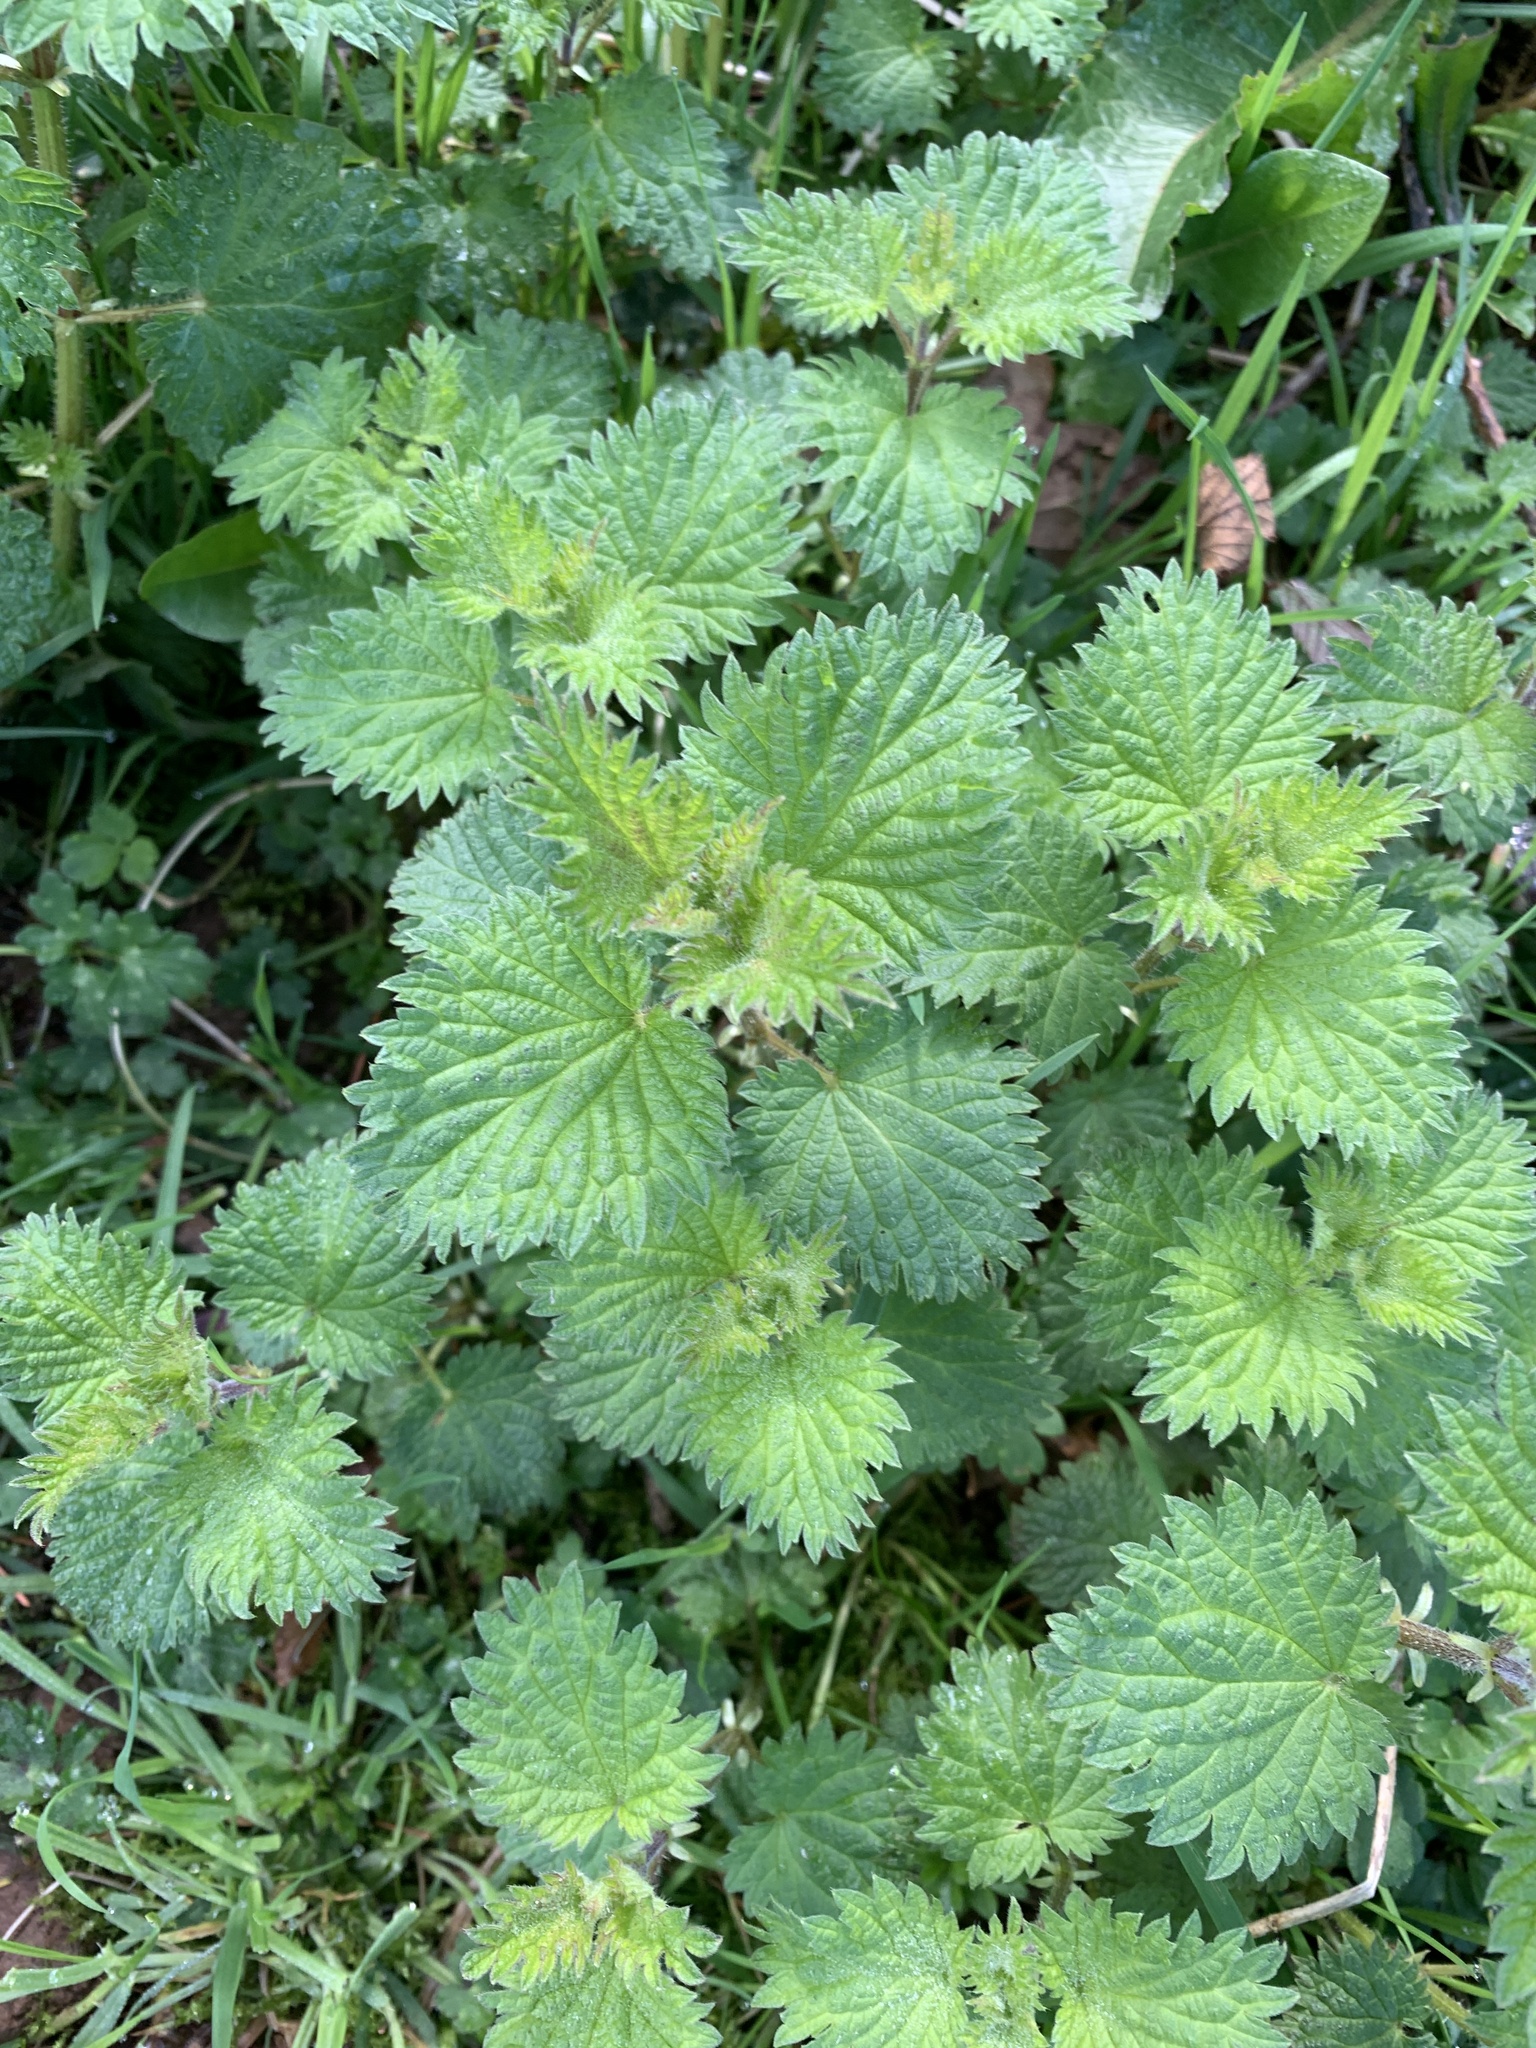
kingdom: Plantae
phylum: Tracheophyta
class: Magnoliopsida
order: Rosales
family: Urticaceae
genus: Urtica
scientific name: Urtica dioica
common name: Common nettle
